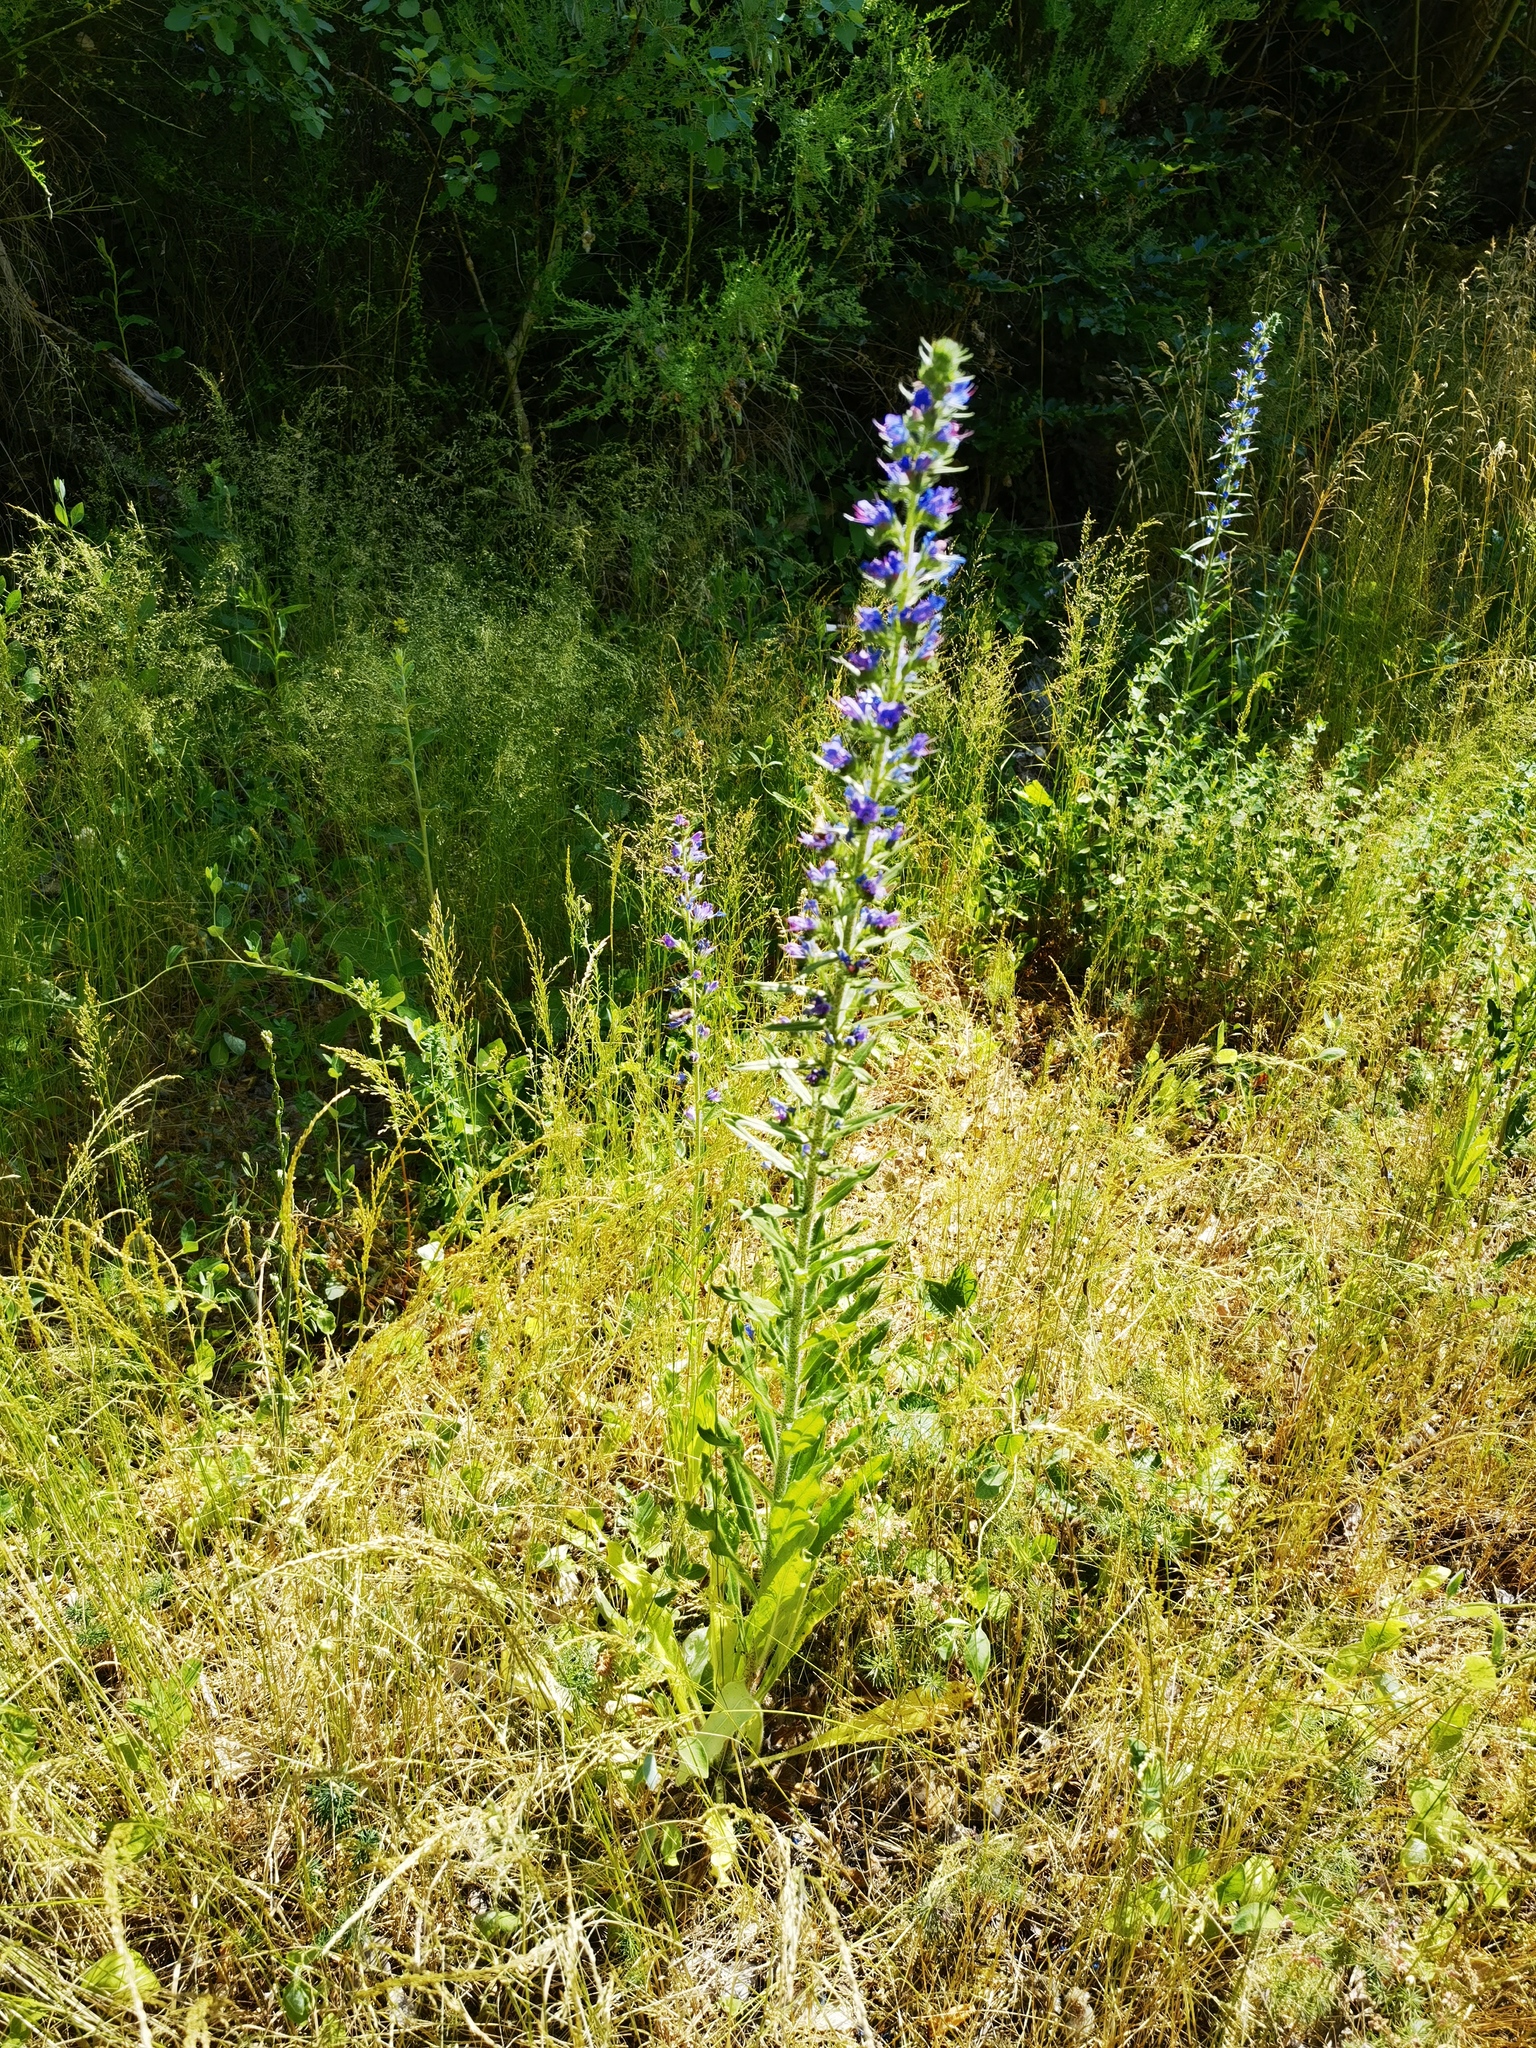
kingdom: Plantae
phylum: Tracheophyta
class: Magnoliopsida
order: Boraginales
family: Boraginaceae
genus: Echium
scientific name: Echium vulgare
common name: Common viper's bugloss
